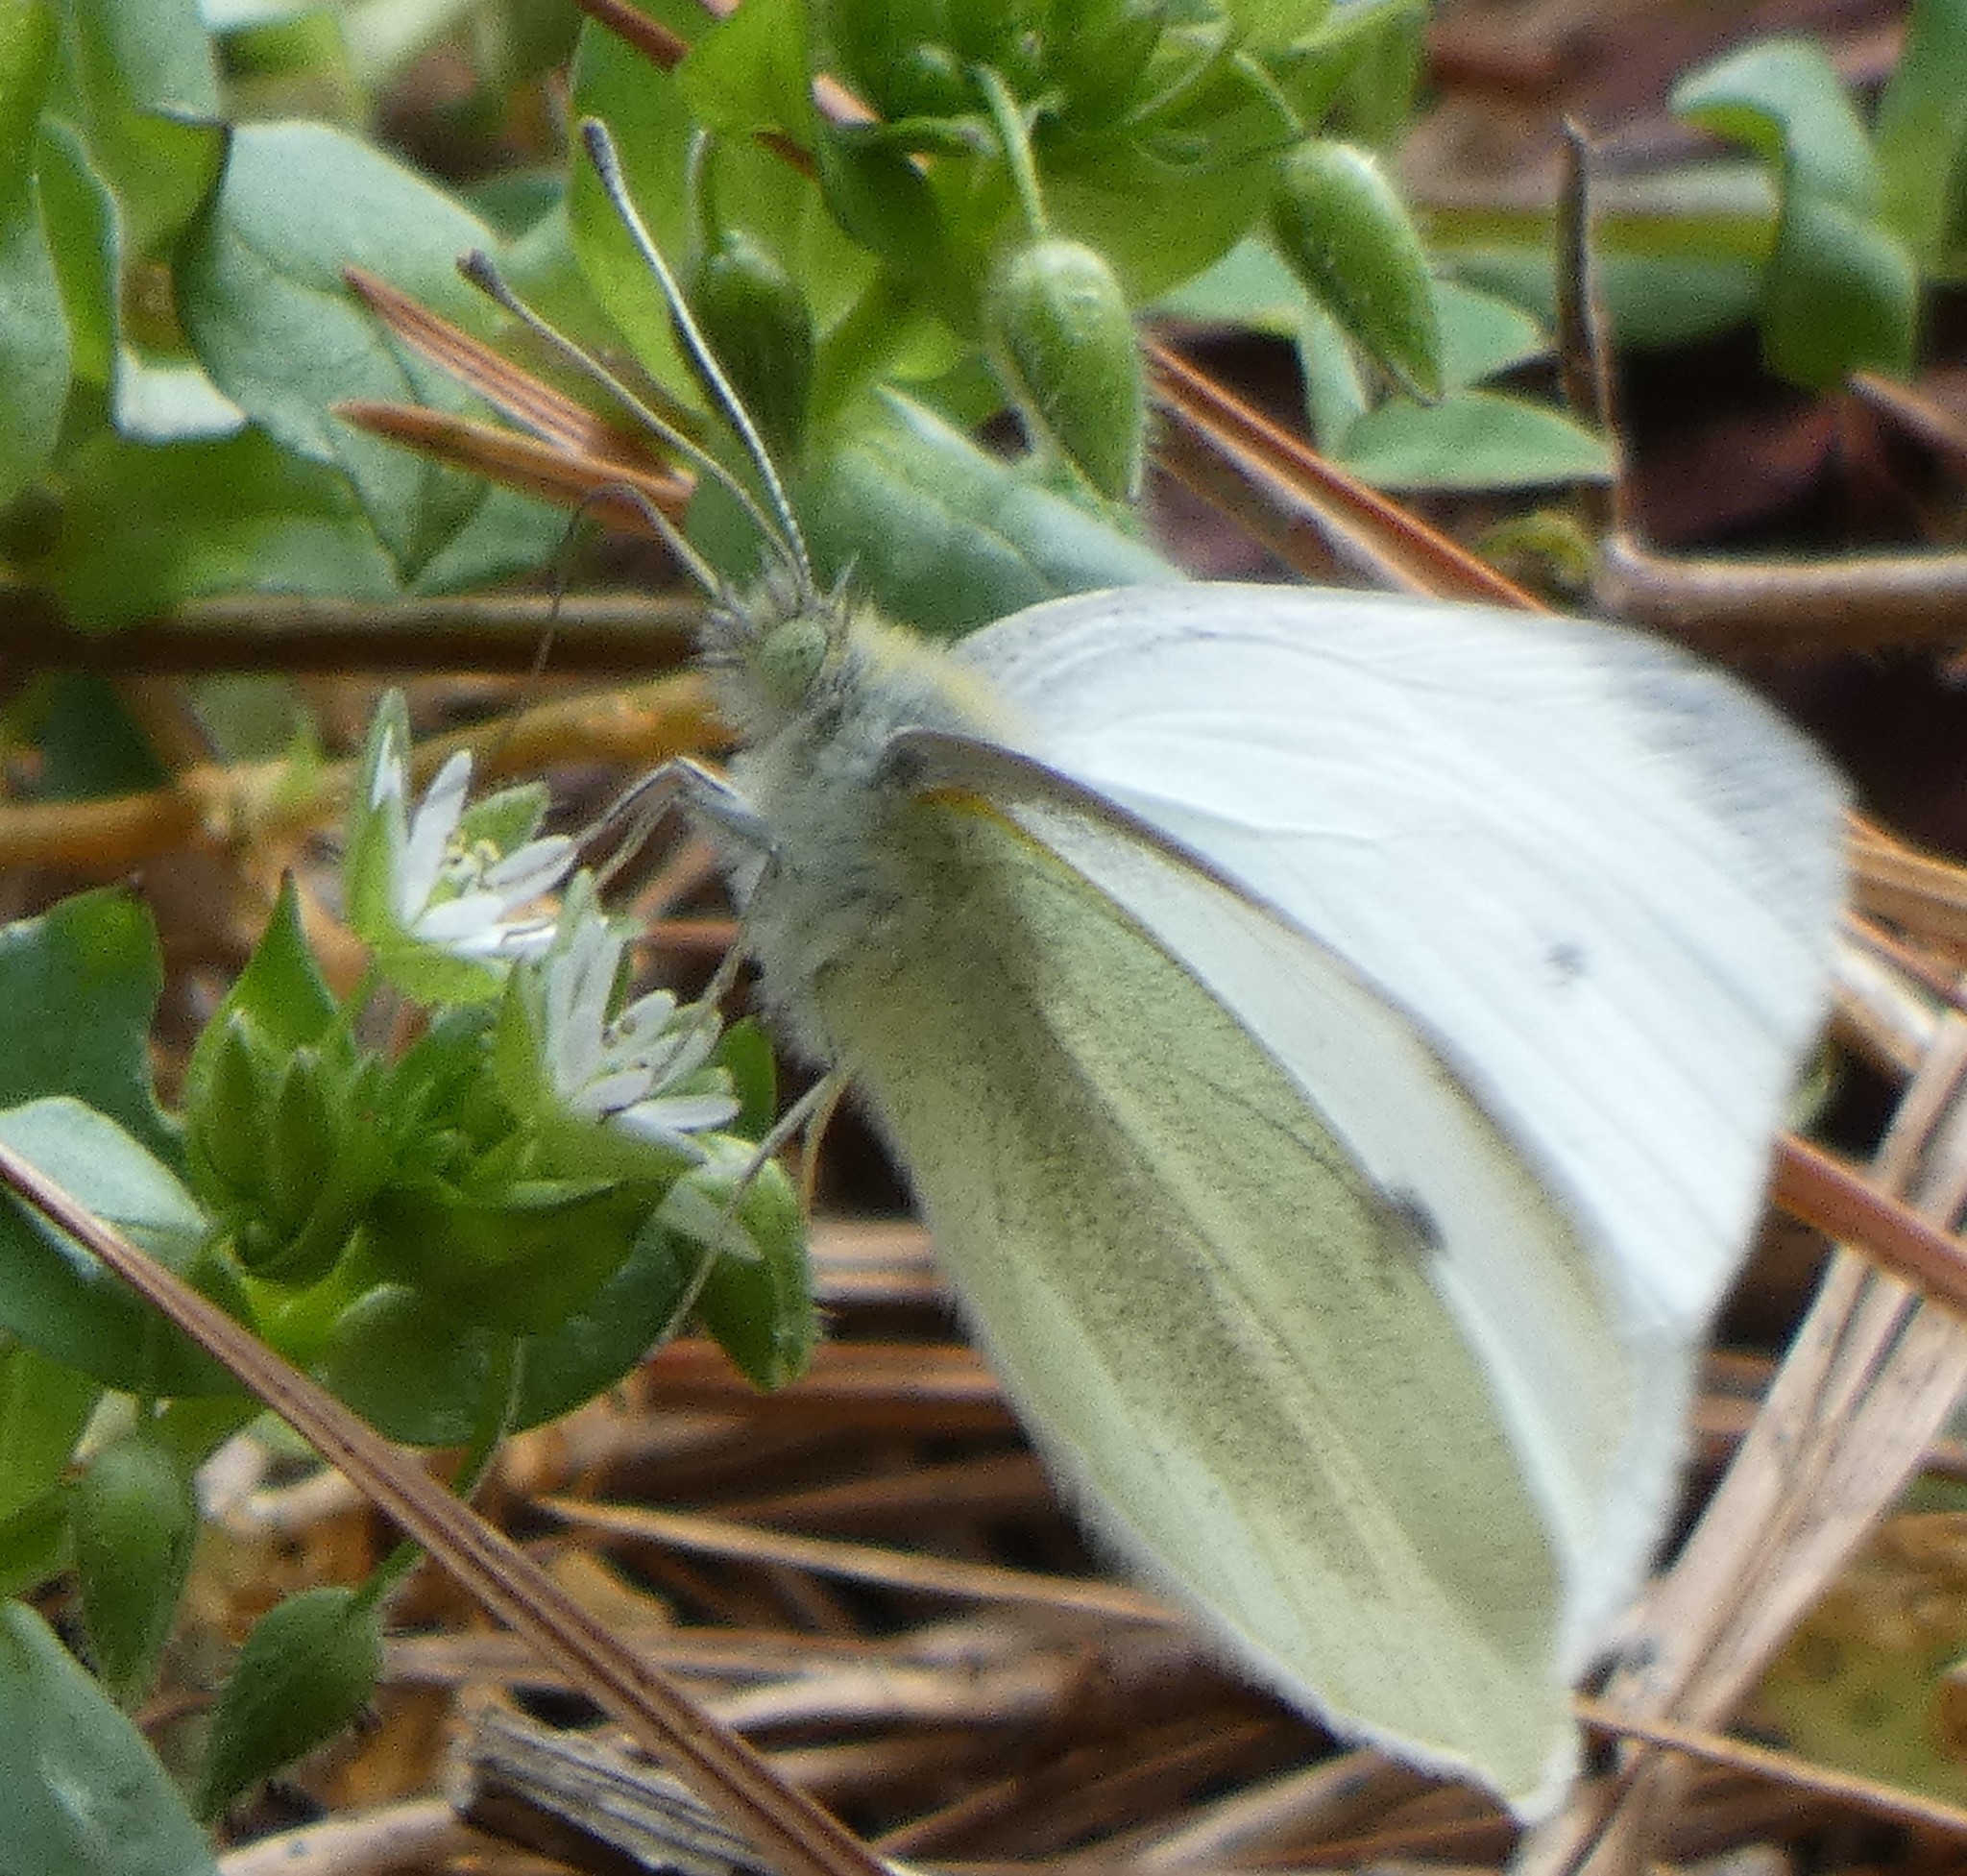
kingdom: Animalia
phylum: Arthropoda
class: Insecta
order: Lepidoptera
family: Pieridae
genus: Pieris
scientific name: Pieris rapae
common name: Small white
